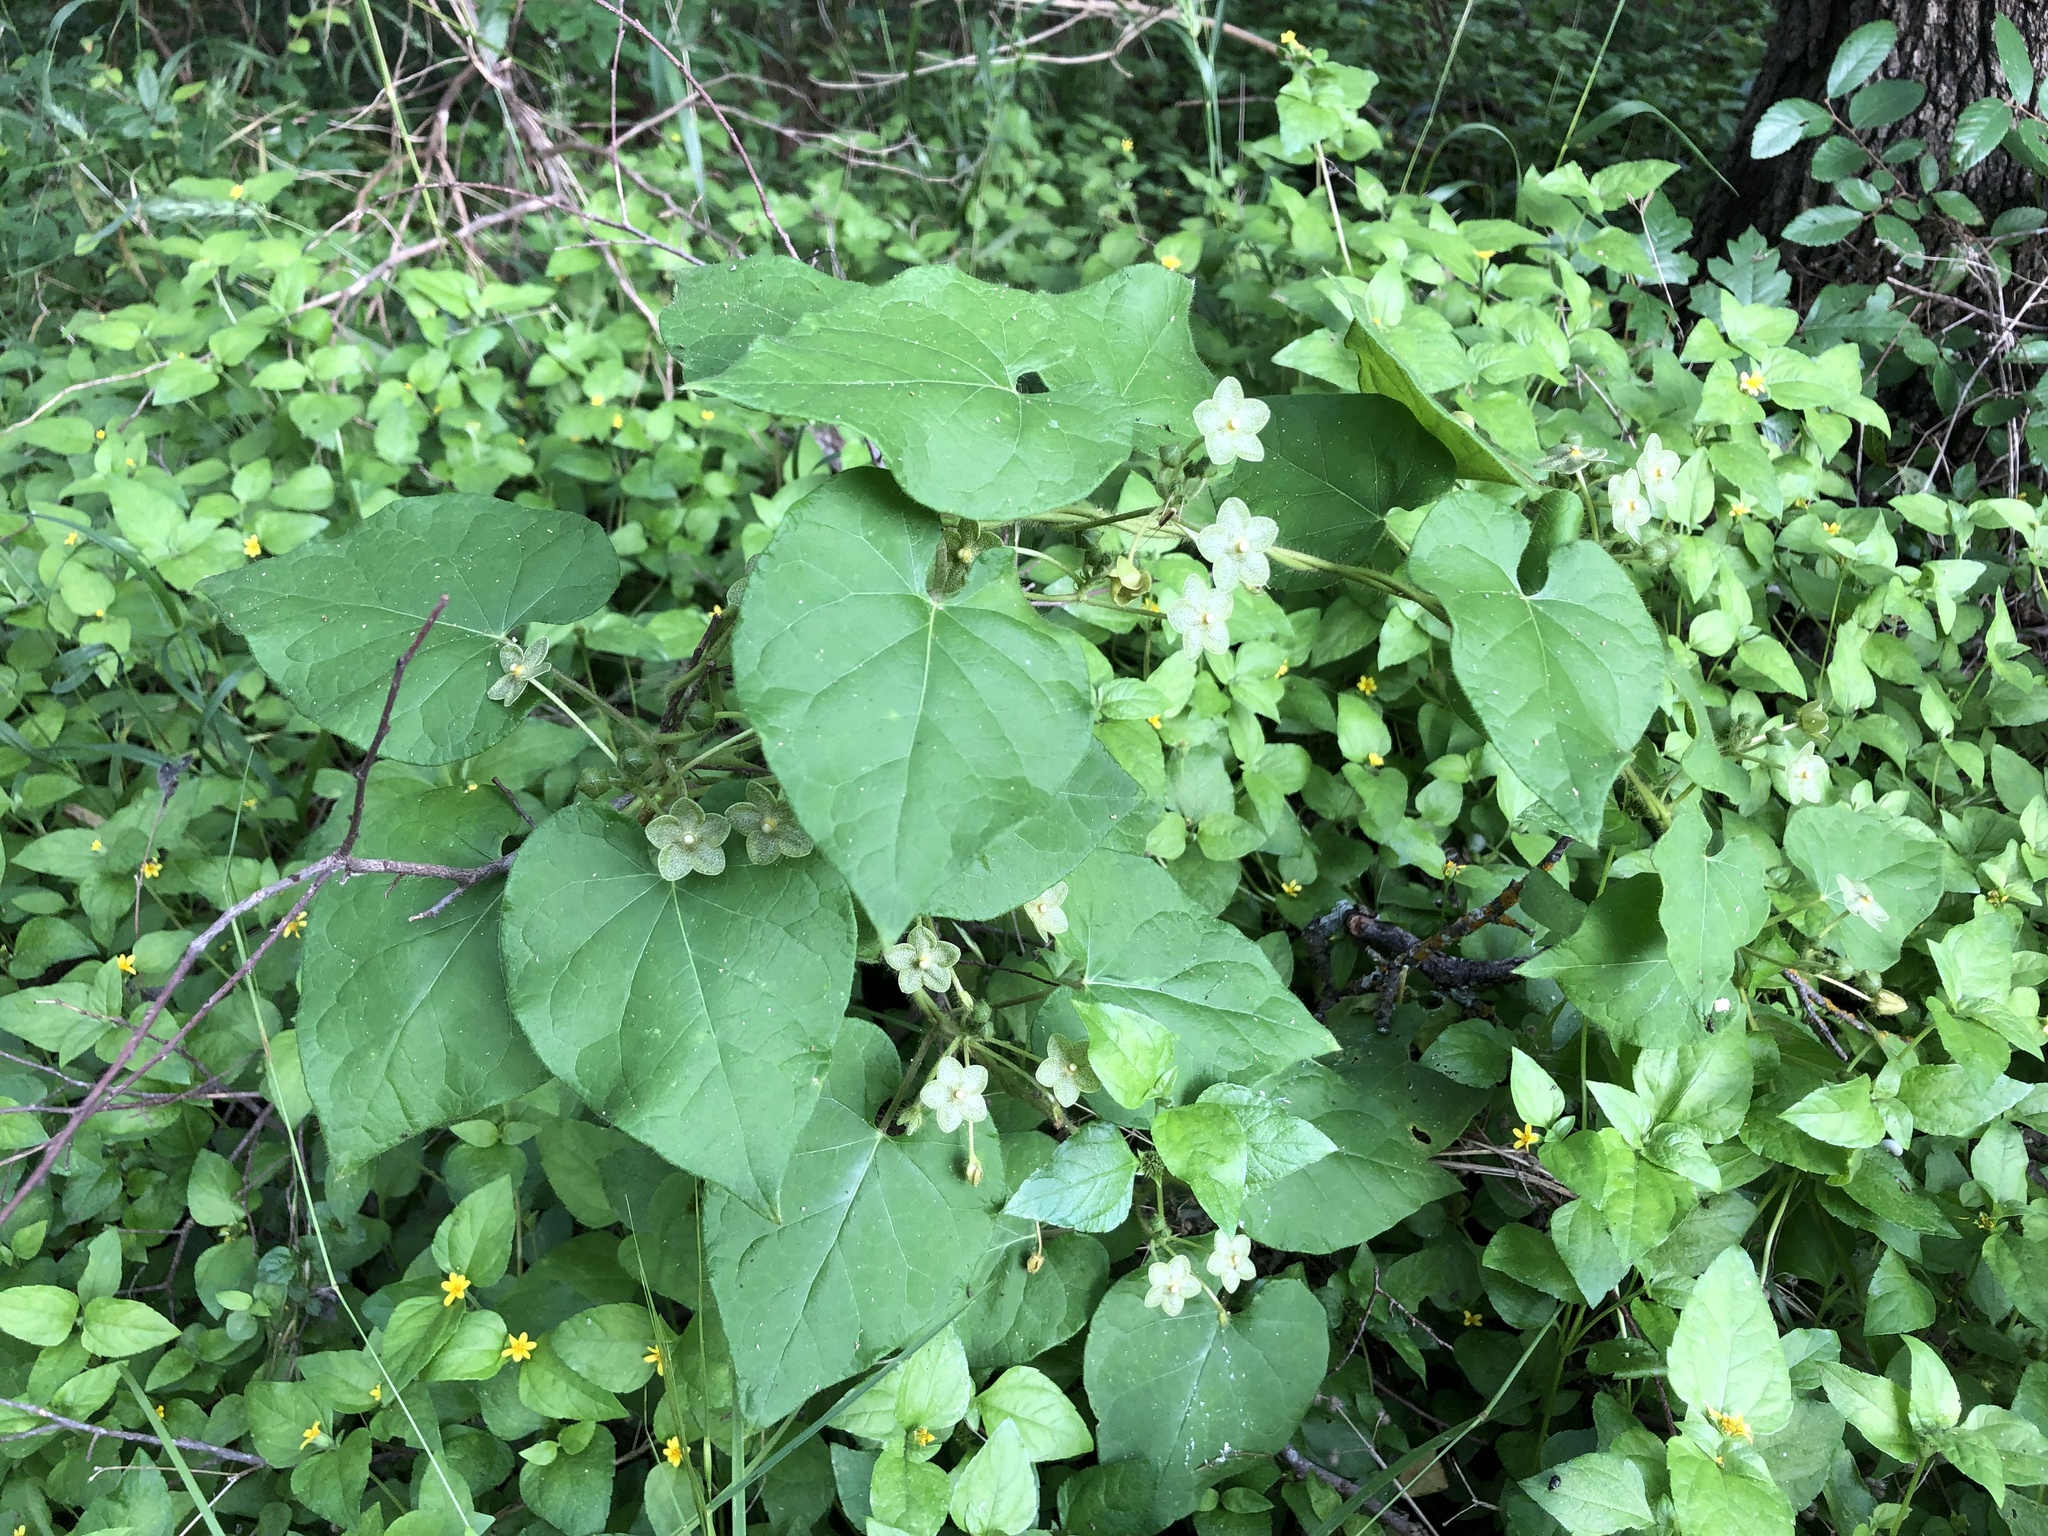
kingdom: Plantae
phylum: Tracheophyta
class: Magnoliopsida
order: Gentianales
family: Apocynaceae
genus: Dictyanthus
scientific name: Dictyanthus reticulatus
